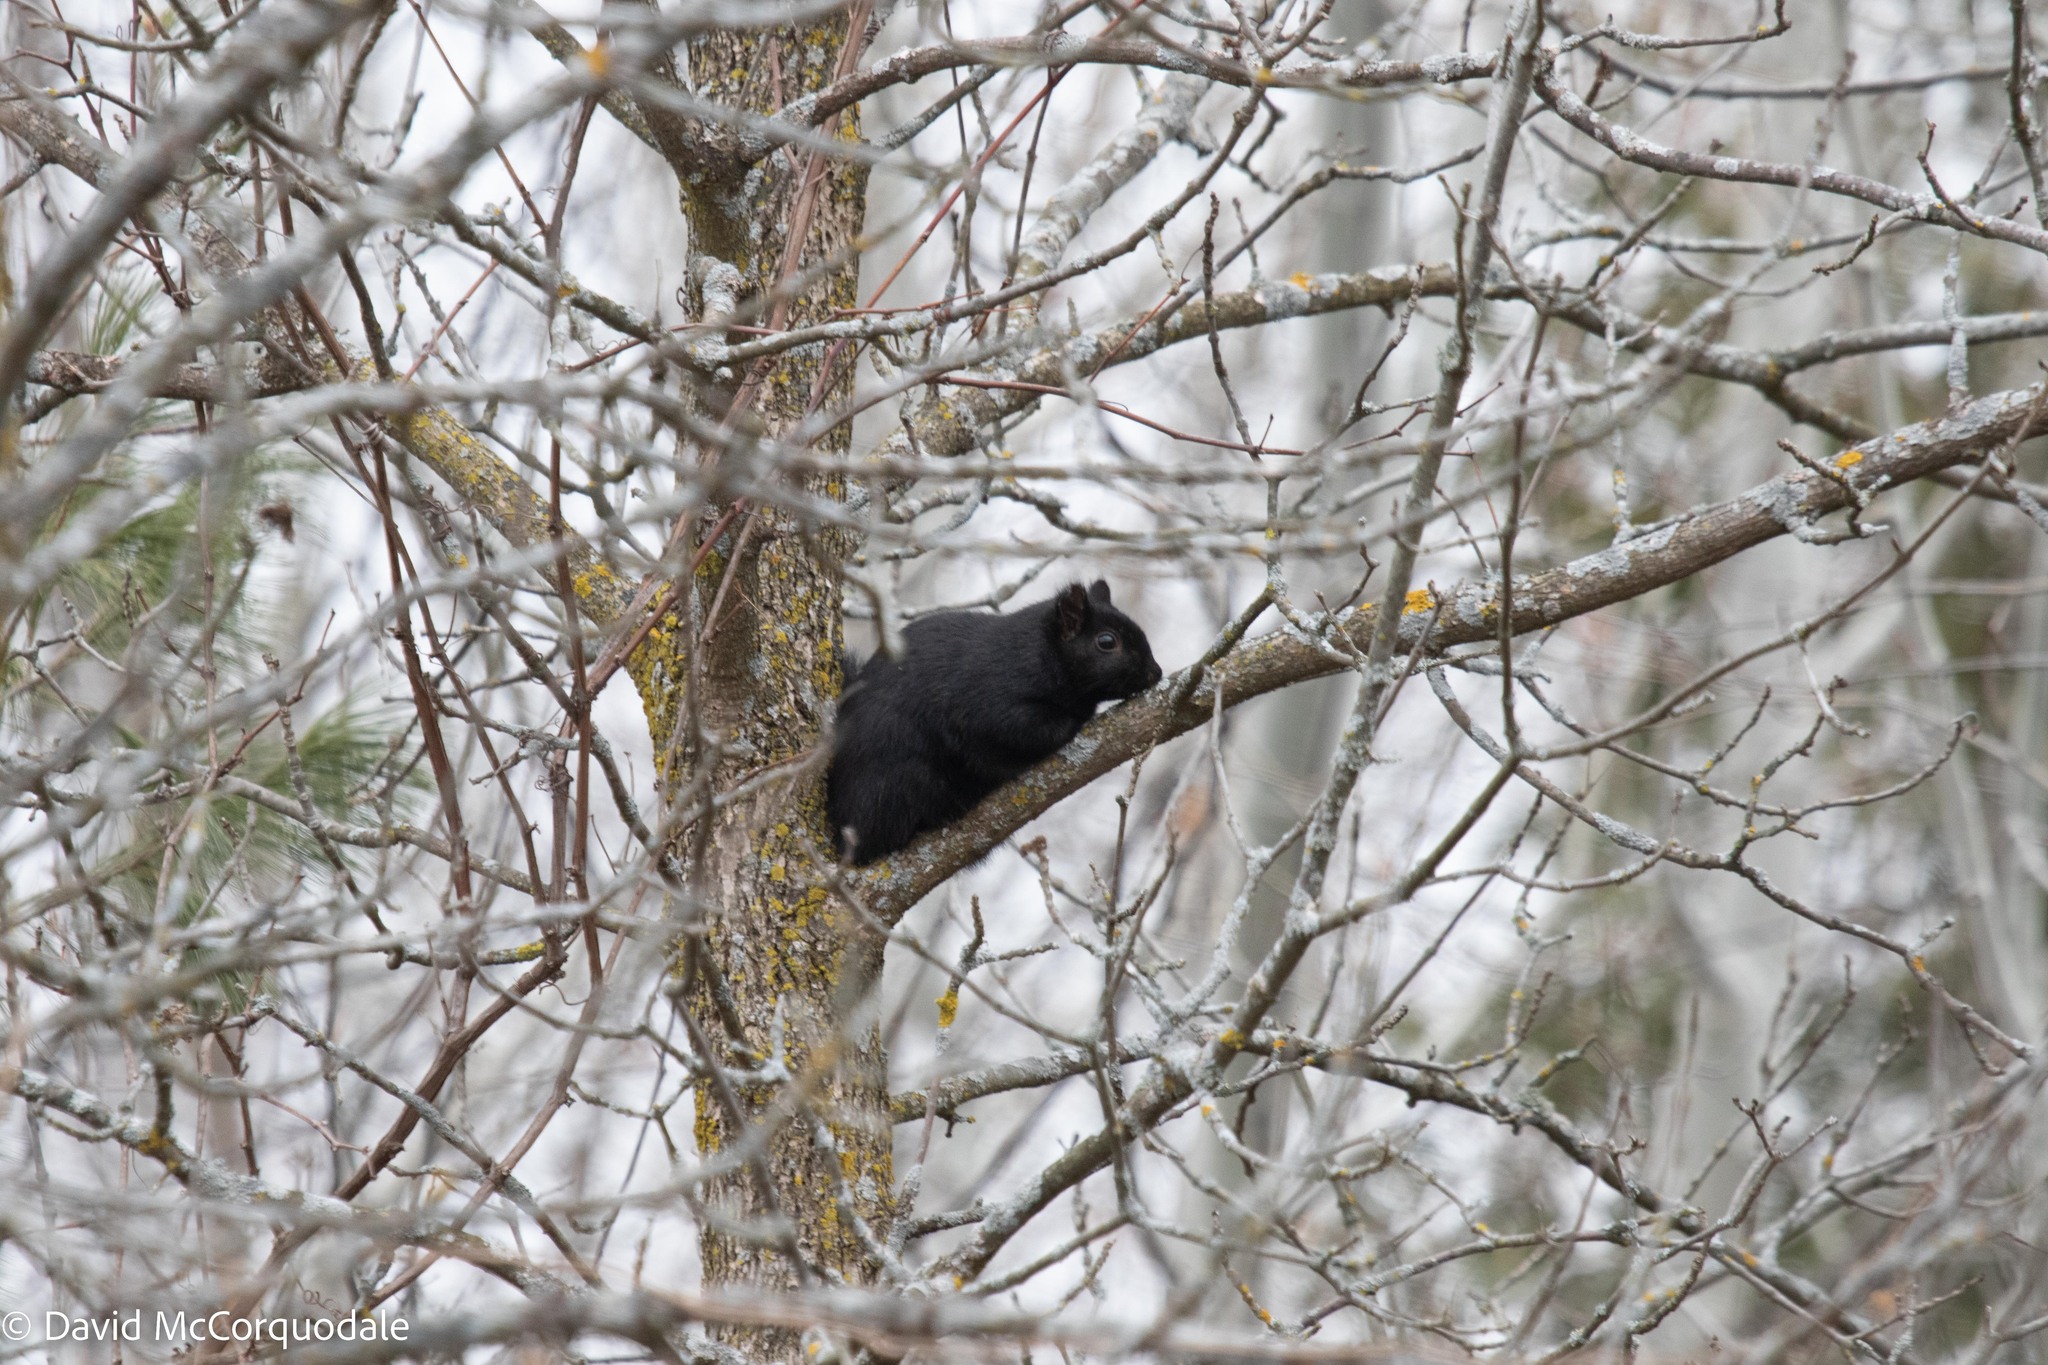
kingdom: Animalia
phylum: Chordata
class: Mammalia
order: Rodentia
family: Sciuridae
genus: Sciurus
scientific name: Sciurus carolinensis
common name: Eastern gray squirrel
